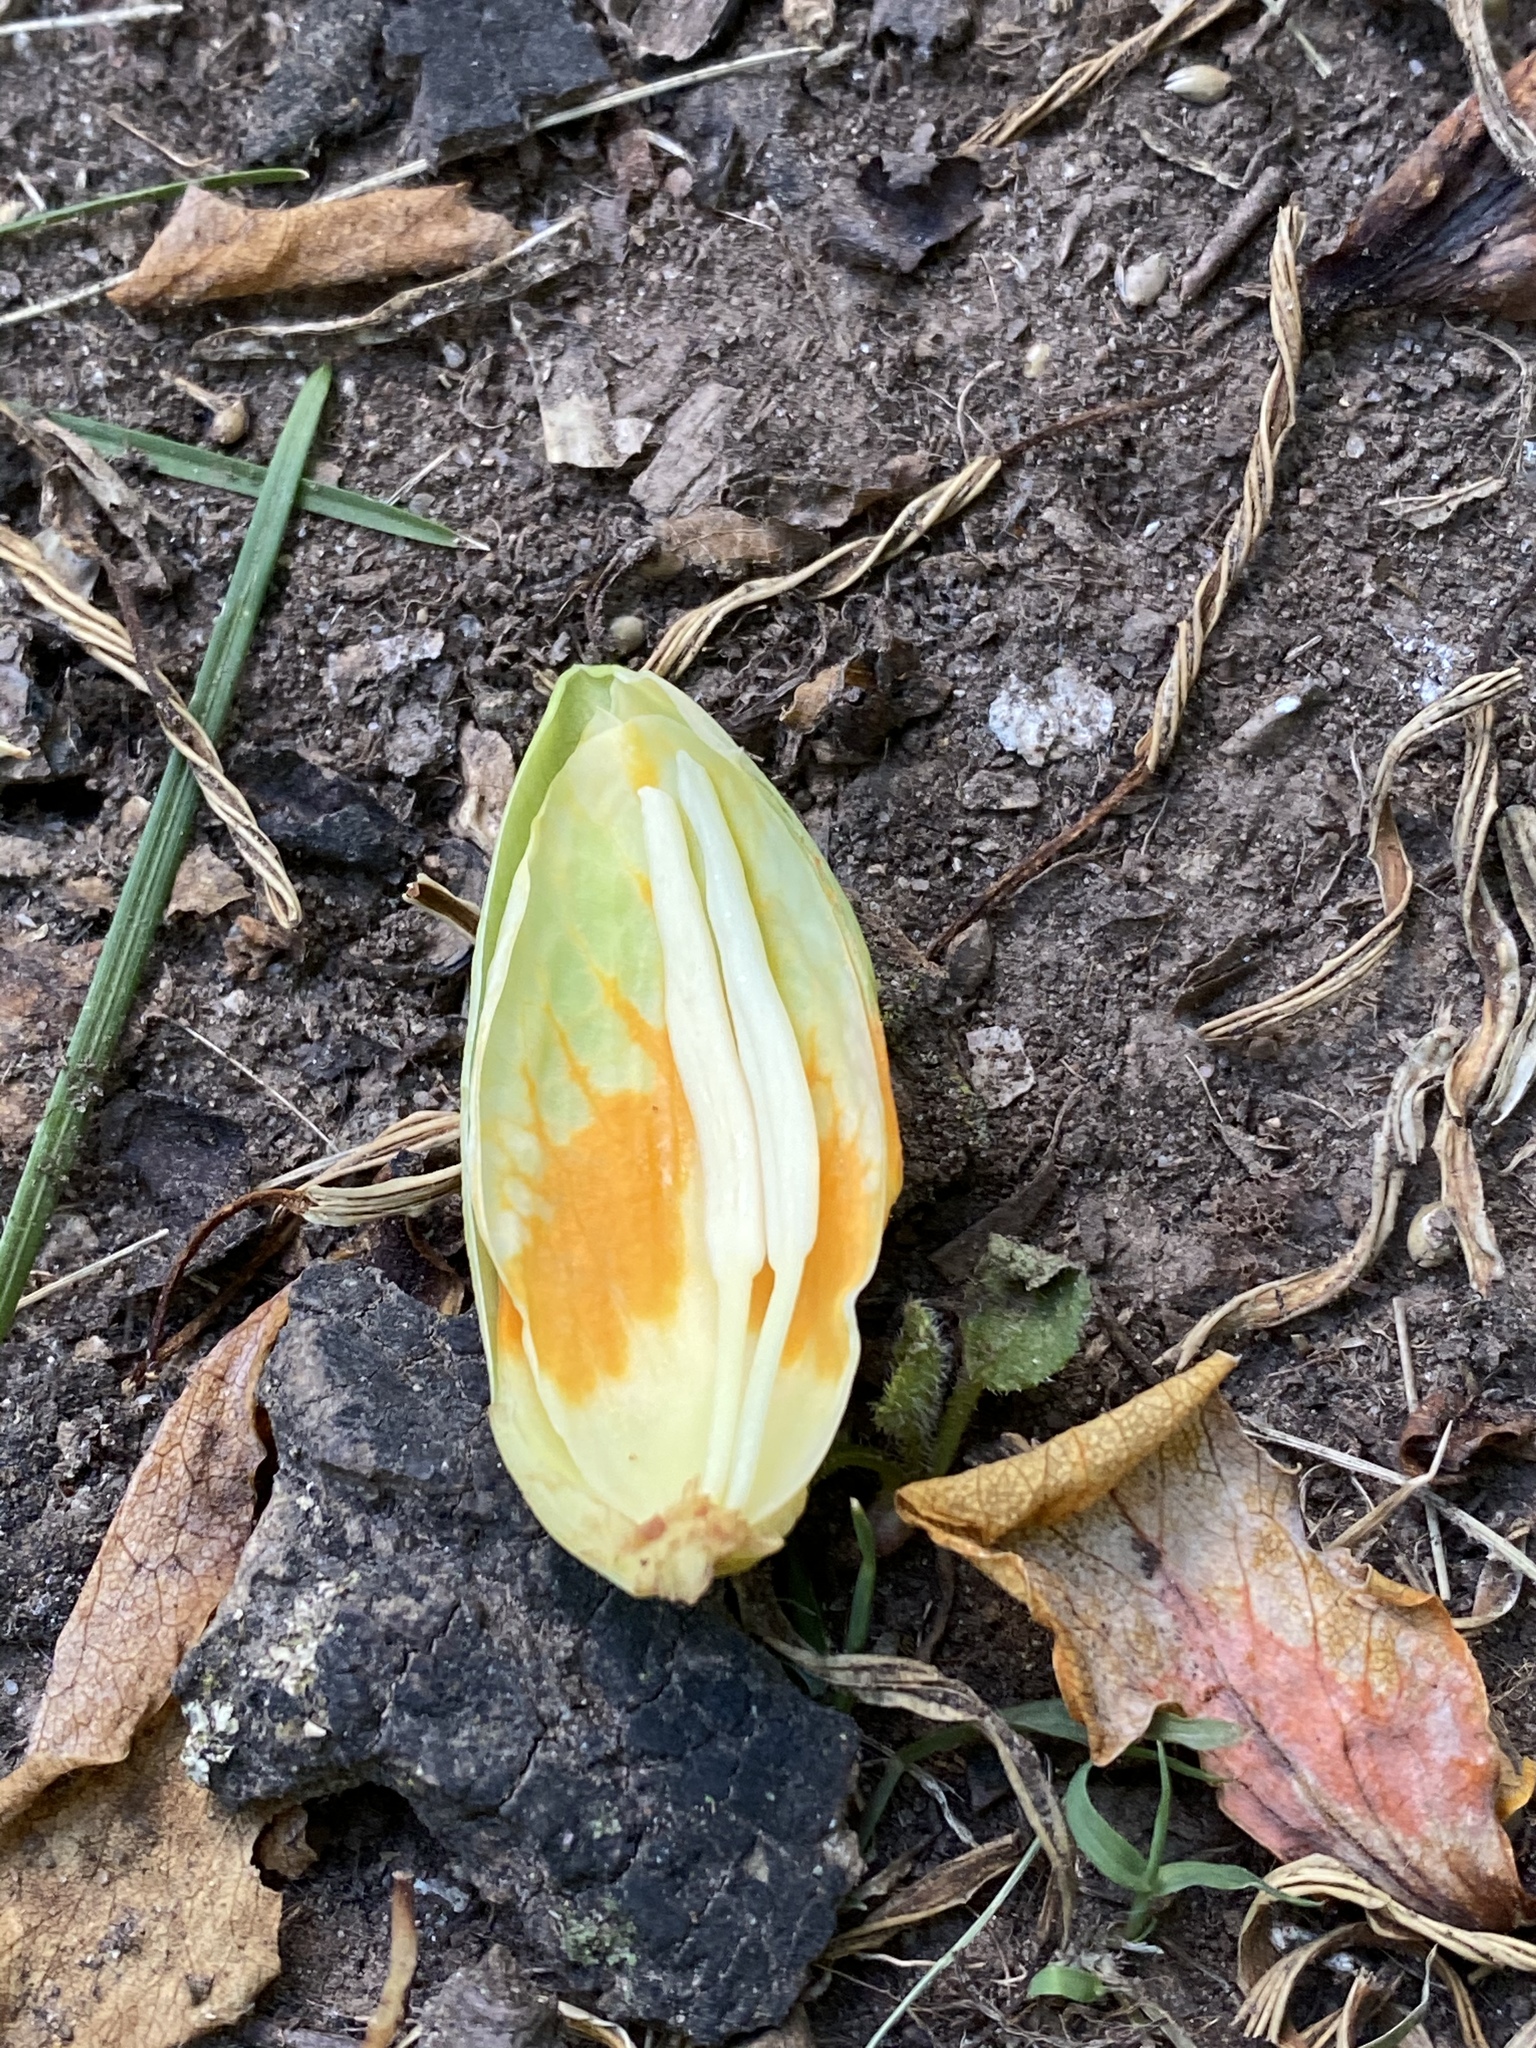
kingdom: Plantae
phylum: Tracheophyta
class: Magnoliopsida
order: Magnoliales
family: Magnoliaceae
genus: Liriodendron
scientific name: Liriodendron tulipifera
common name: Tulip tree
